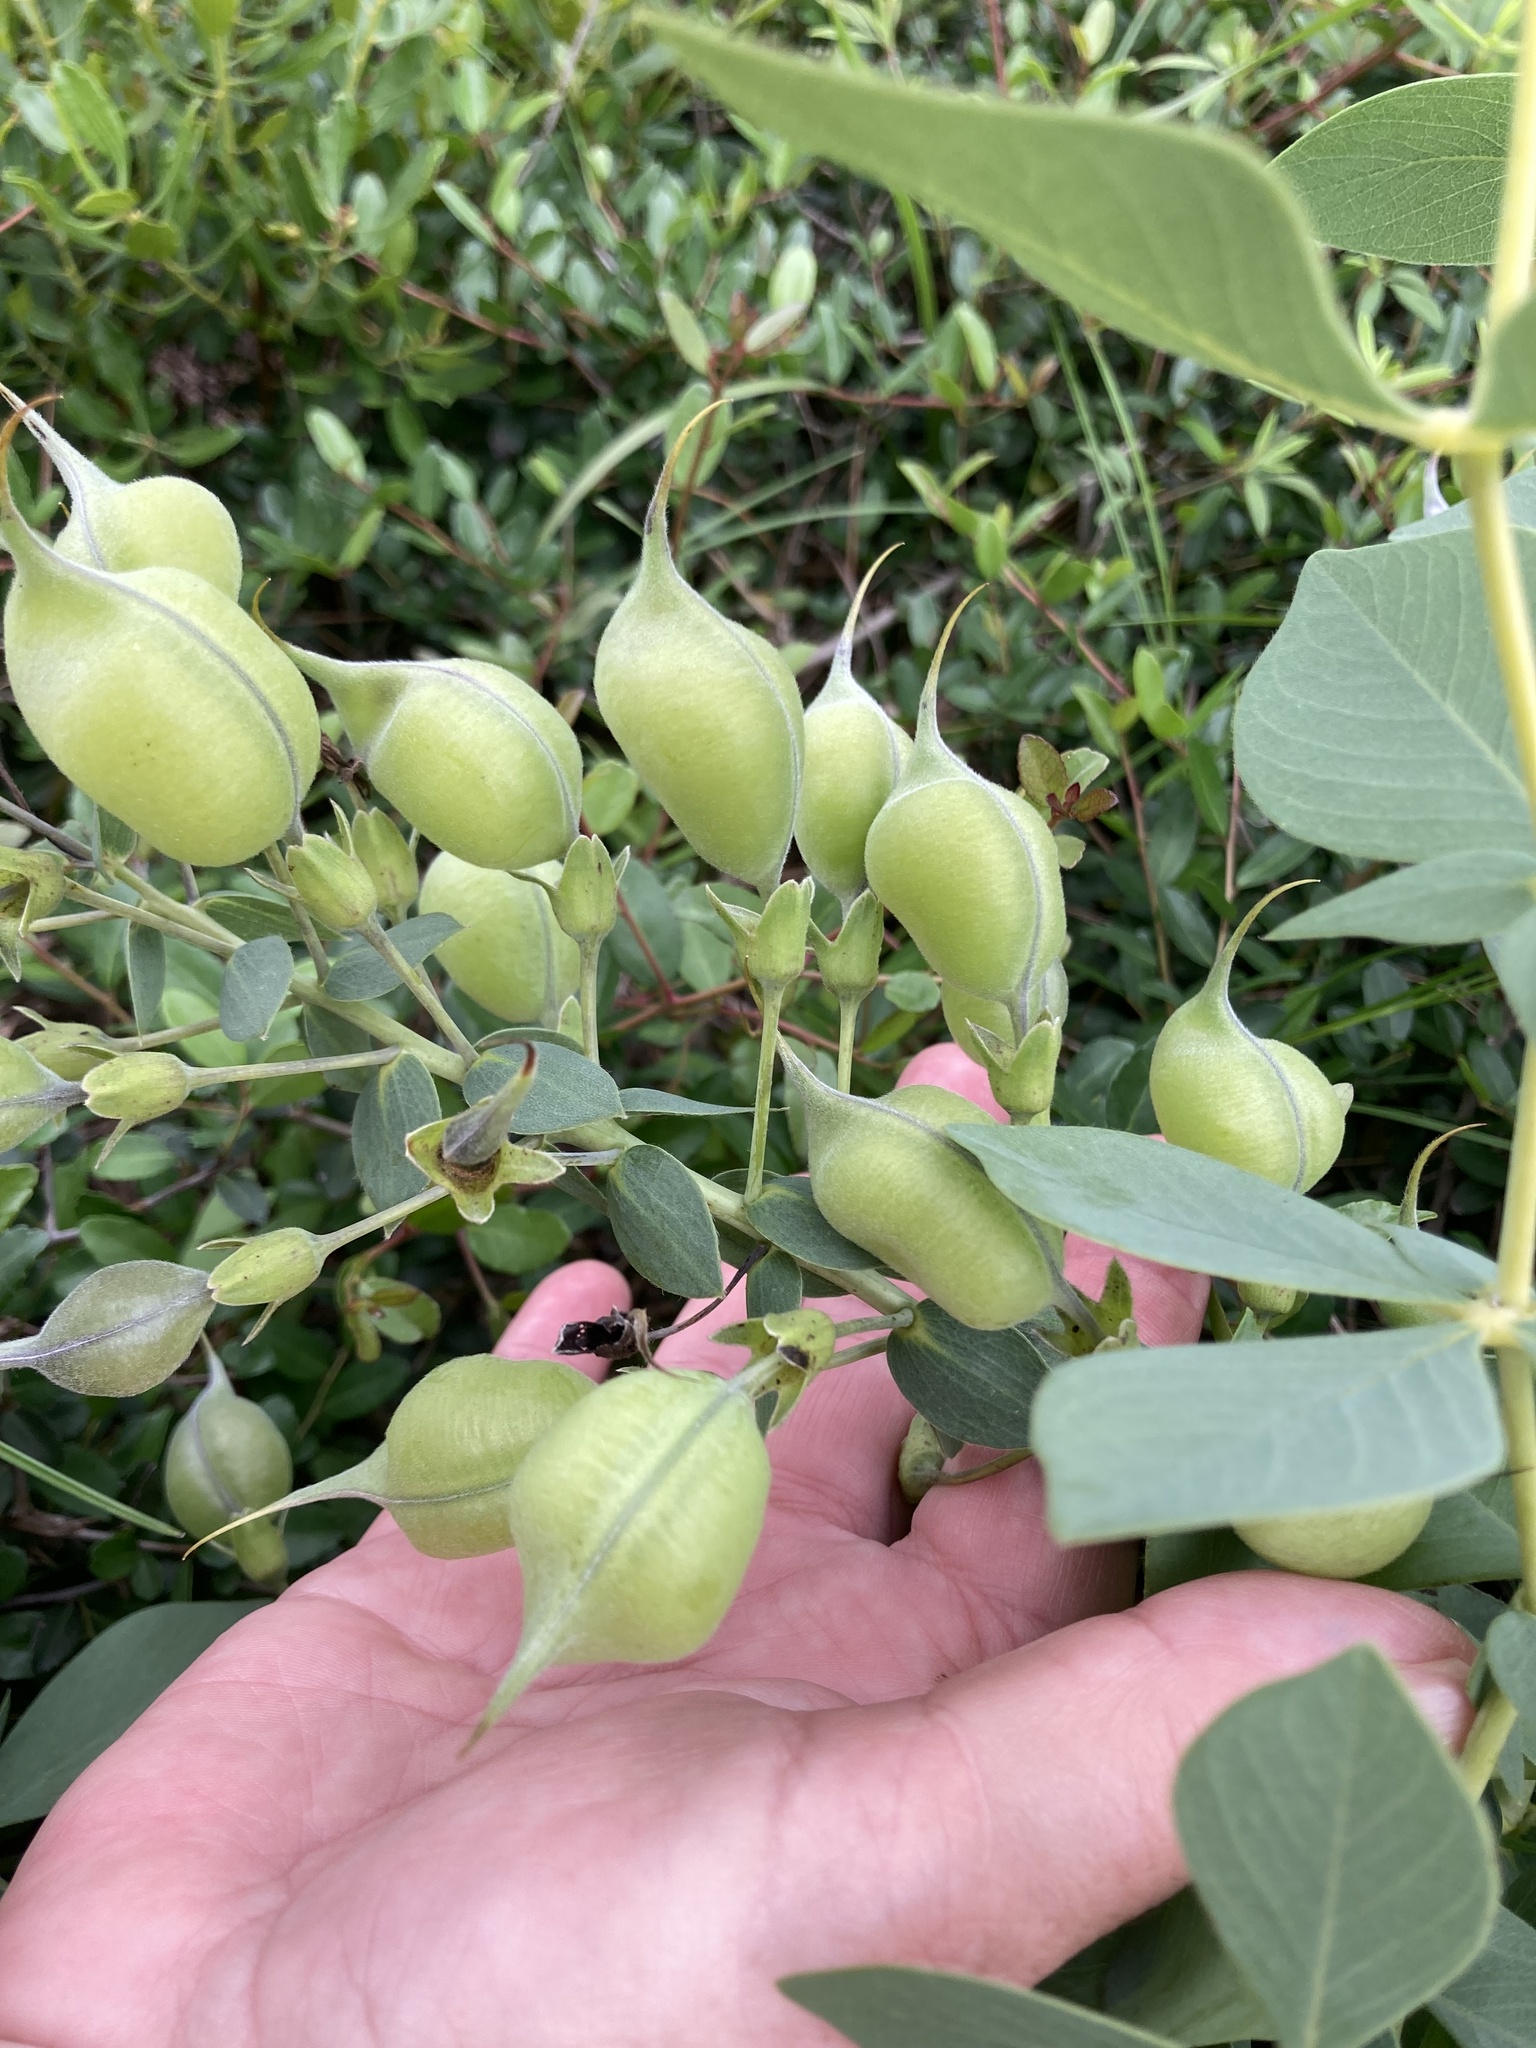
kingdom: Plantae
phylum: Tracheophyta
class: Magnoliopsida
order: Fabales
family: Fabaceae
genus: Baptisia
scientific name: Baptisia bracteata
